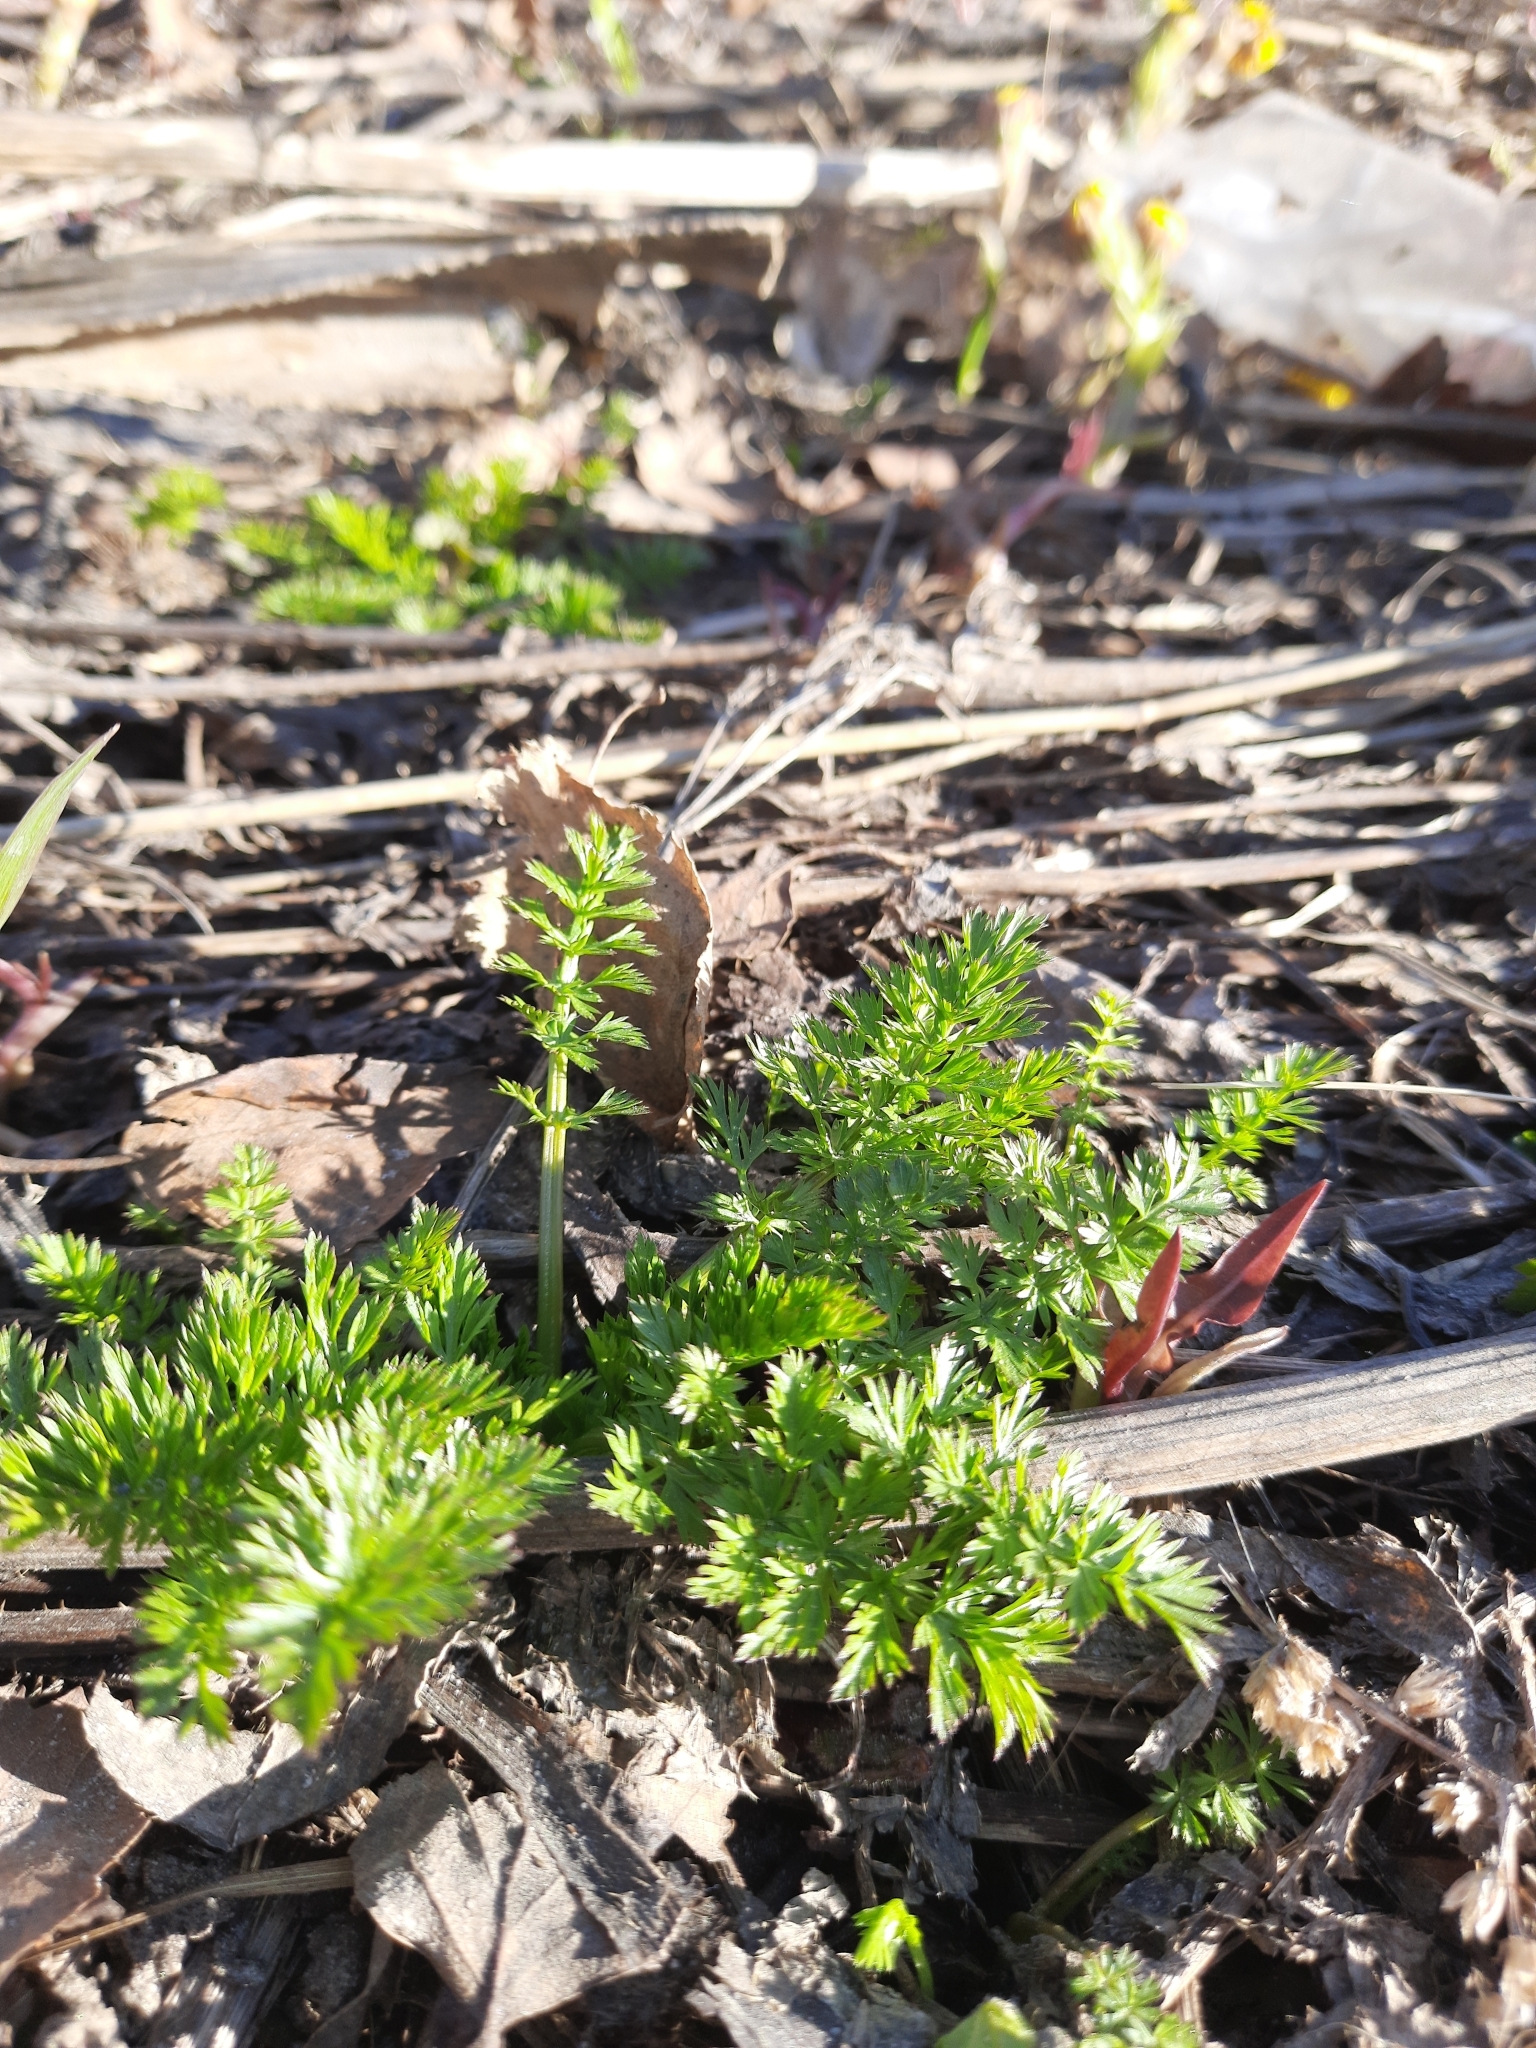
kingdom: Plantae
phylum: Tracheophyta
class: Magnoliopsida
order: Apiales
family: Apiaceae
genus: Carum
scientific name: Carum carvi
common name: Caraway
